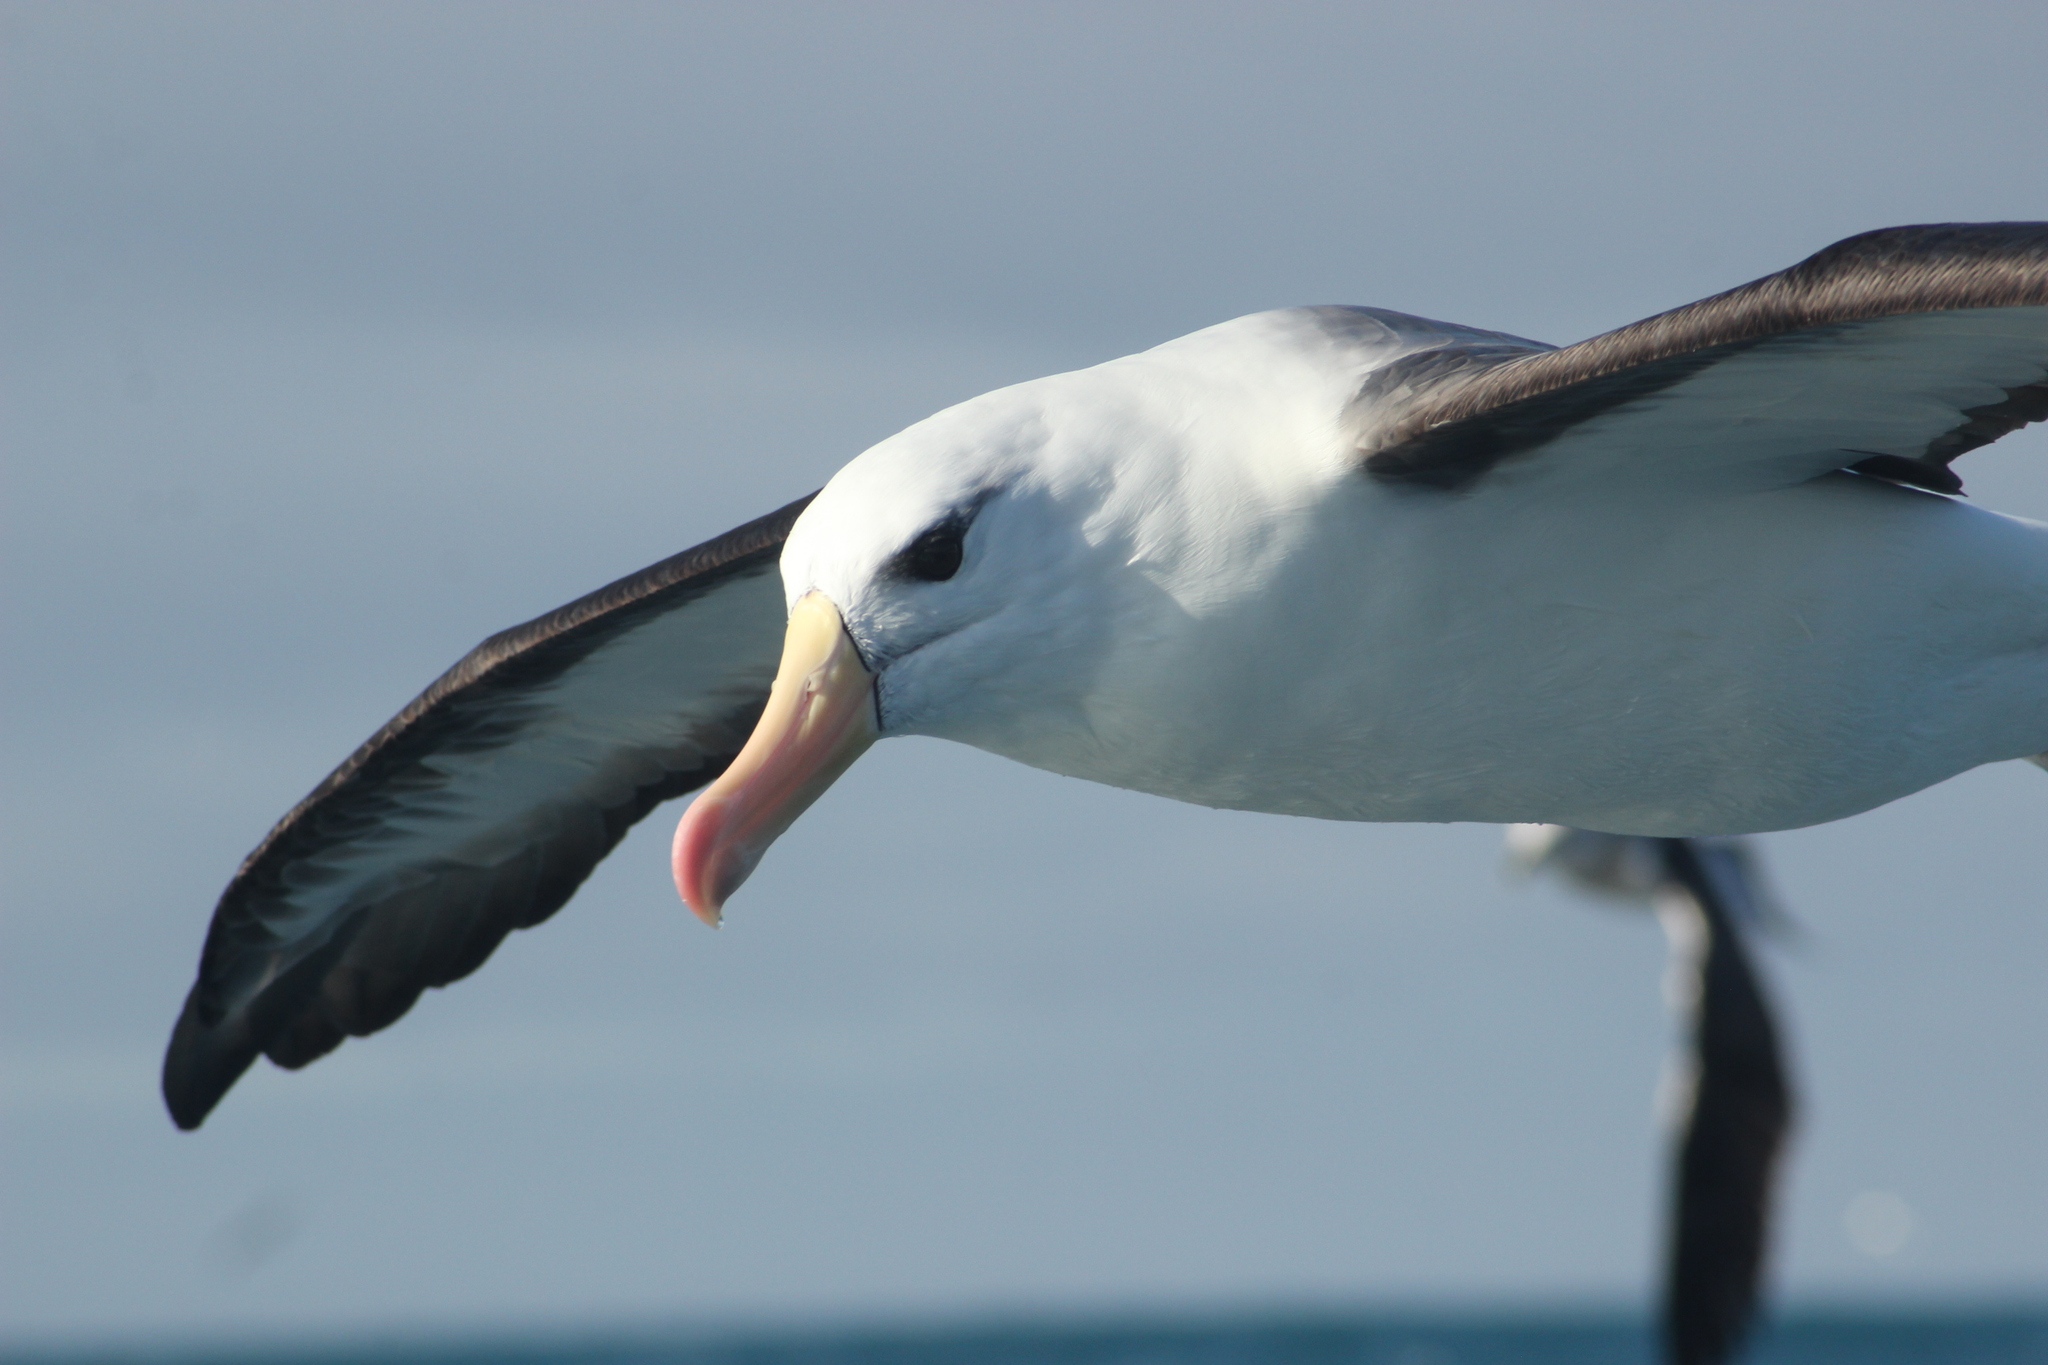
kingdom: Animalia
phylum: Chordata
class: Aves
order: Procellariiformes
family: Diomedeidae
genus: Thalassarche
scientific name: Thalassarche melanophris
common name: Black-browed albatross
